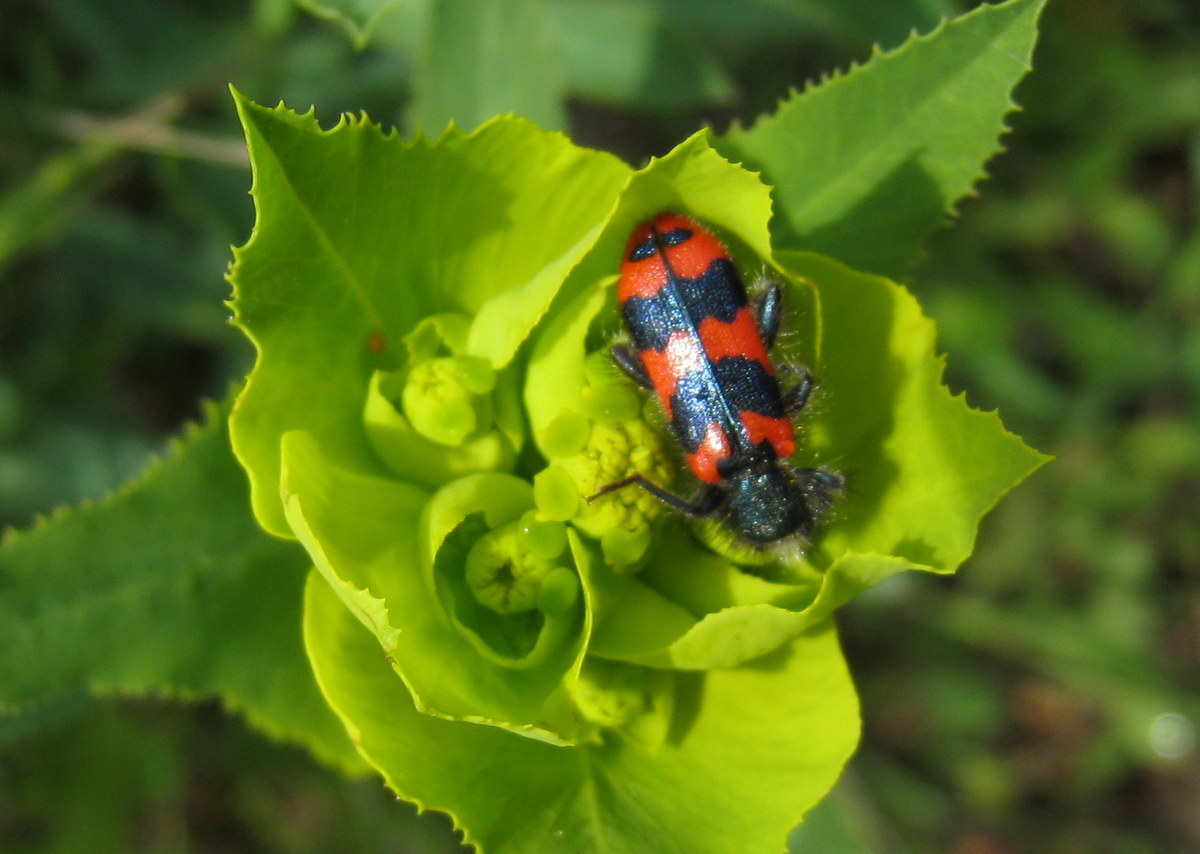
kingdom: Animalia
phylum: Arthropoda
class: Insecta
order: Coleoptera
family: Cleridae
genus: Trichodes
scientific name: Trichodes alvearius
